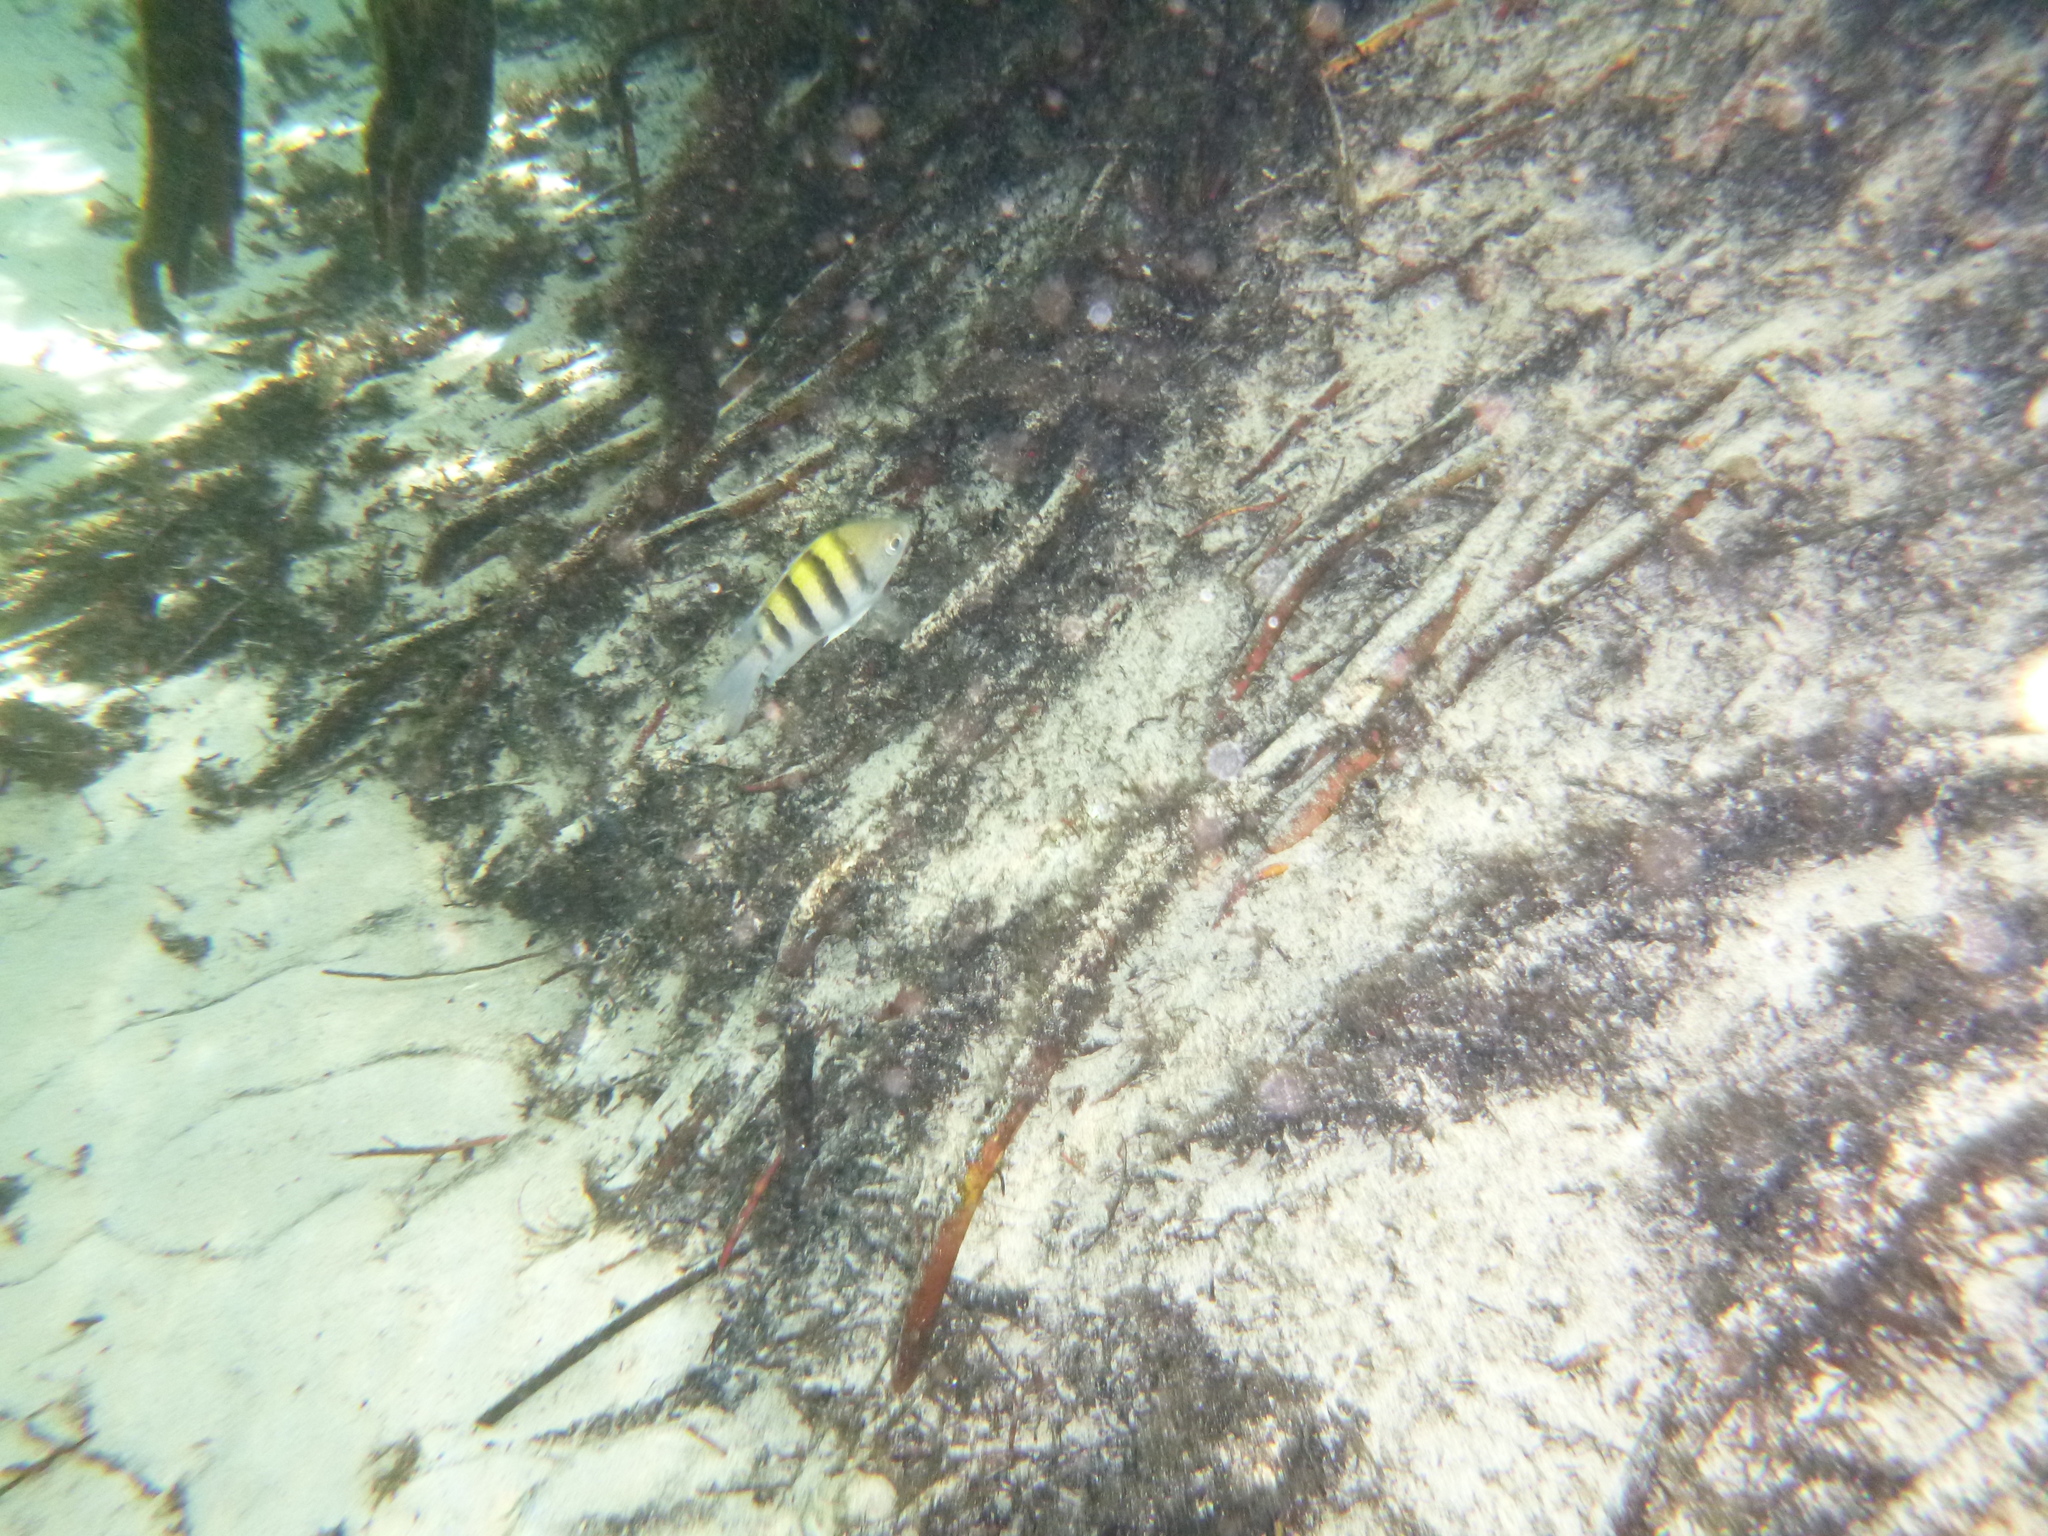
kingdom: Animalia
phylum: Chordata
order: Perciformes
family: Pomacentridae
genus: Abudefduf
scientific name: Abudefduf saxatilis
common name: Sergeant major
